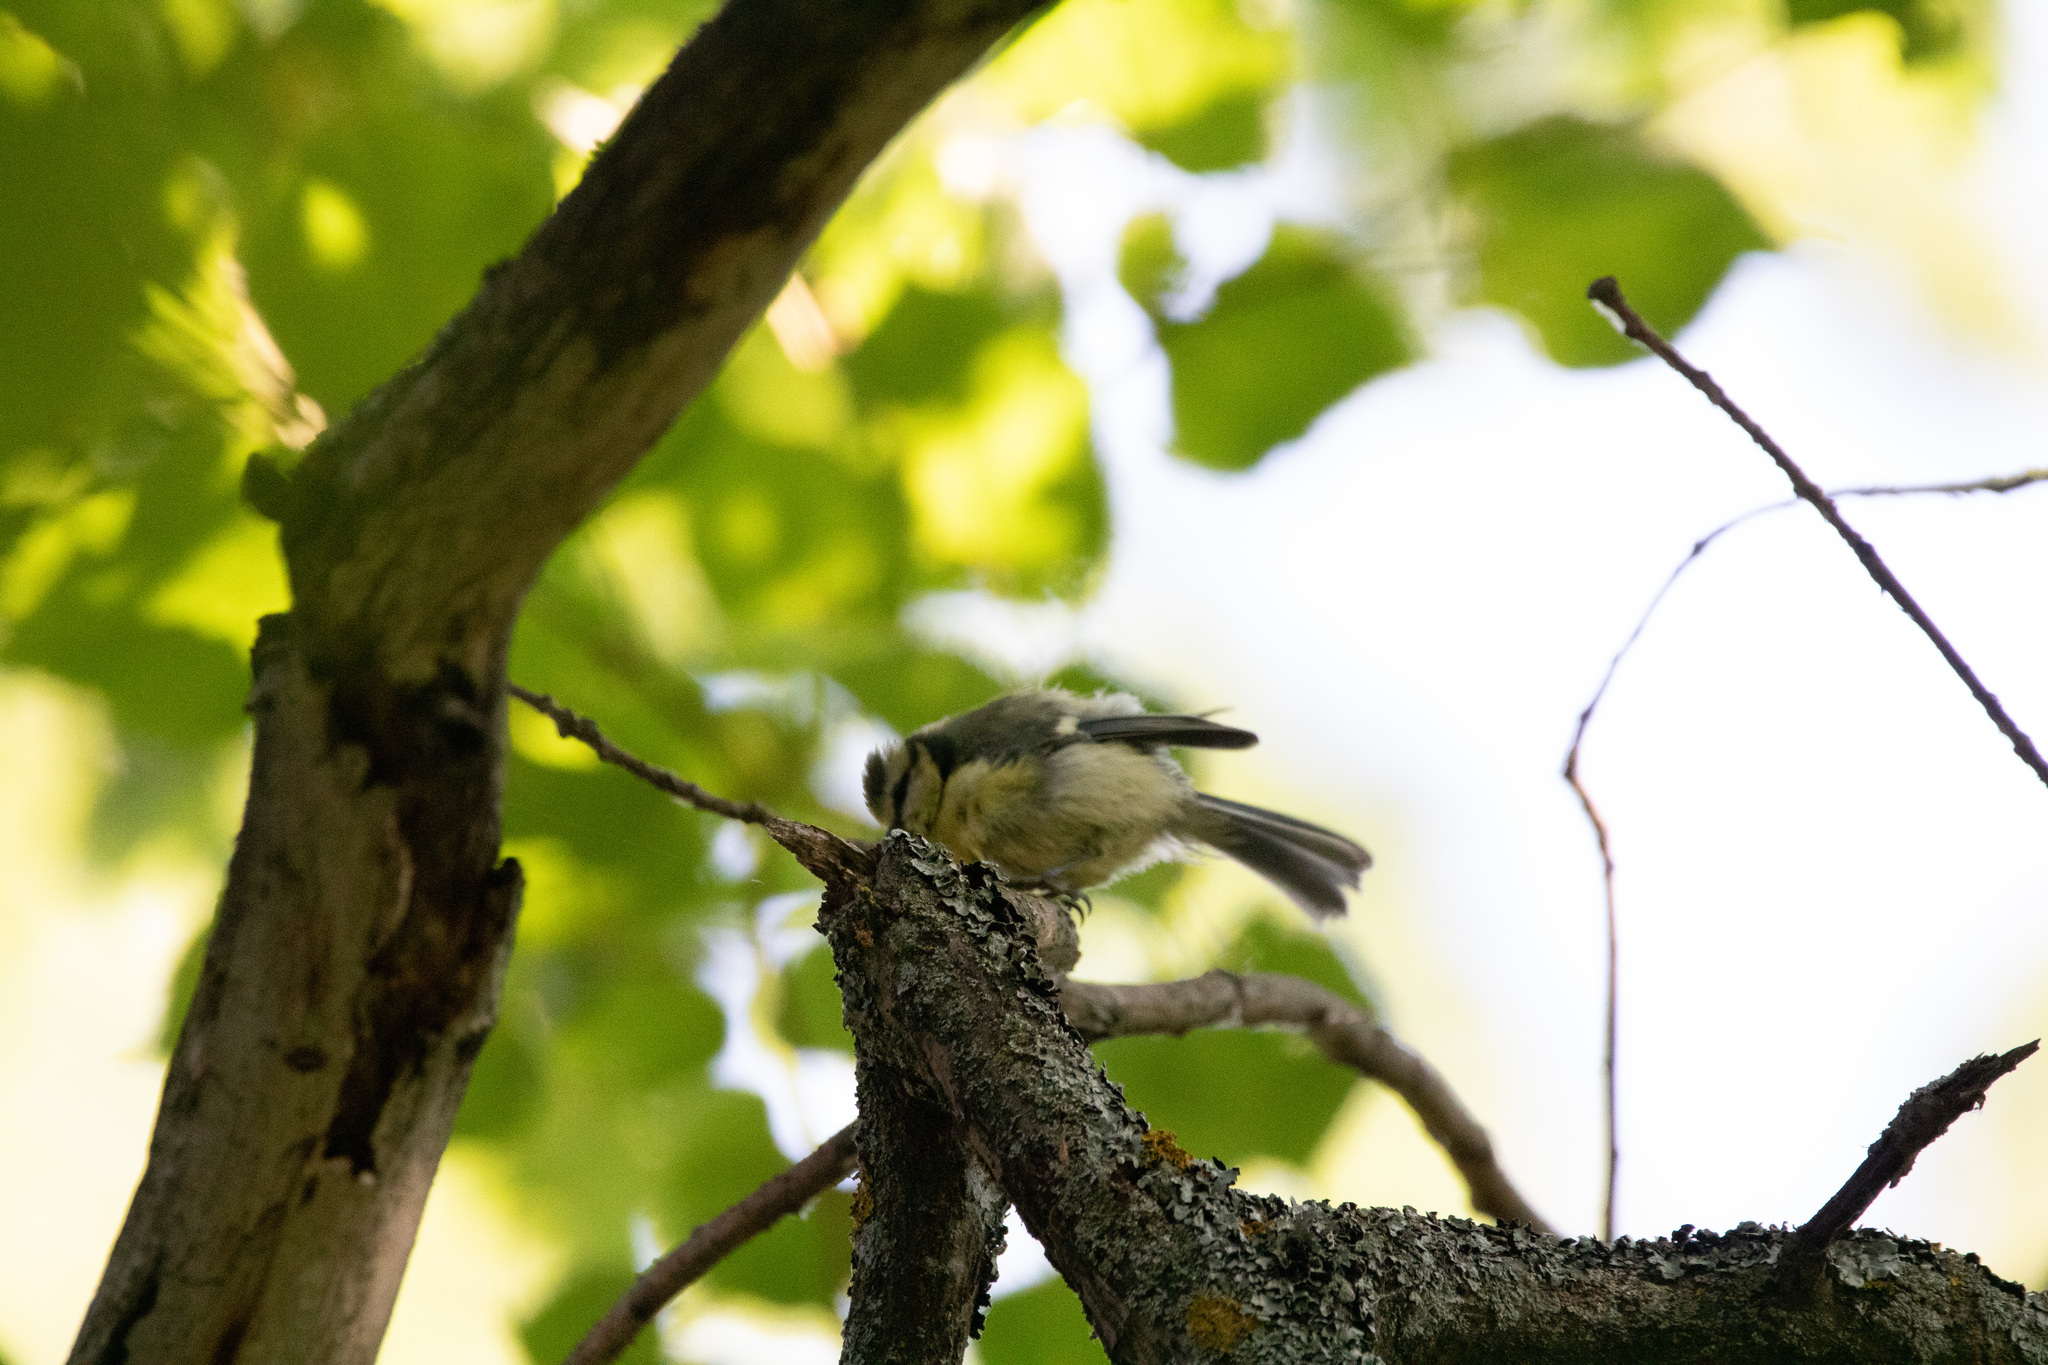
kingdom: Animalia
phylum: Chordata
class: Aves
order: Passeriformes
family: Paridae
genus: Cyanistes
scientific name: Cyanistes caeruleus
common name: Eurasian blue tit
